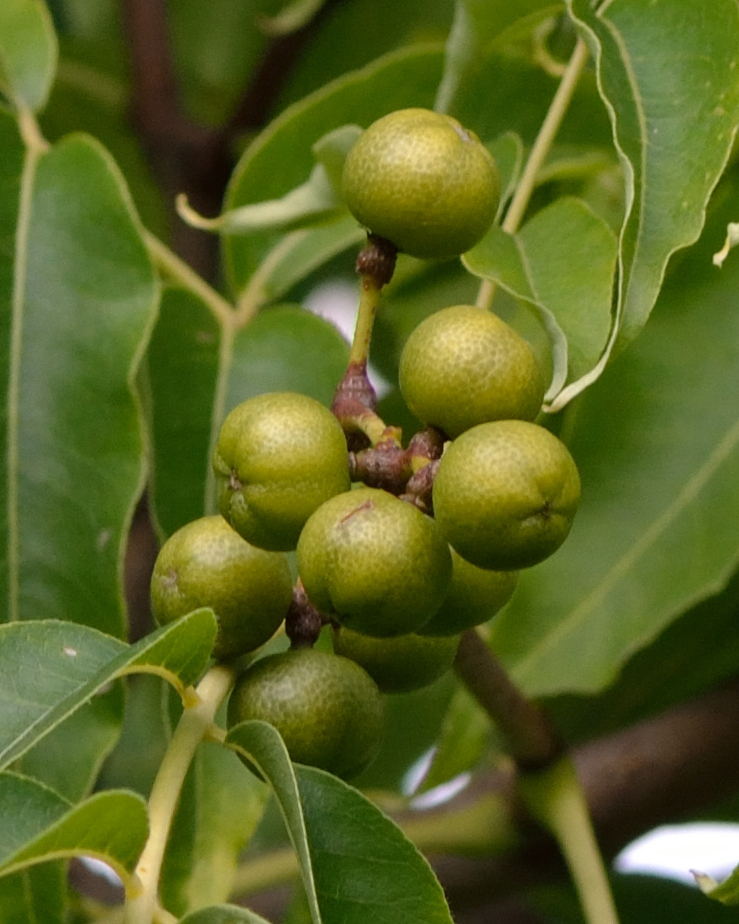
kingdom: Plantae
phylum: Tracheophyta
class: Magnoliopsida
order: Sapindales
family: Rutaceae
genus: Phellodendron
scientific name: Phellodendron amurense
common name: Amur corktree
